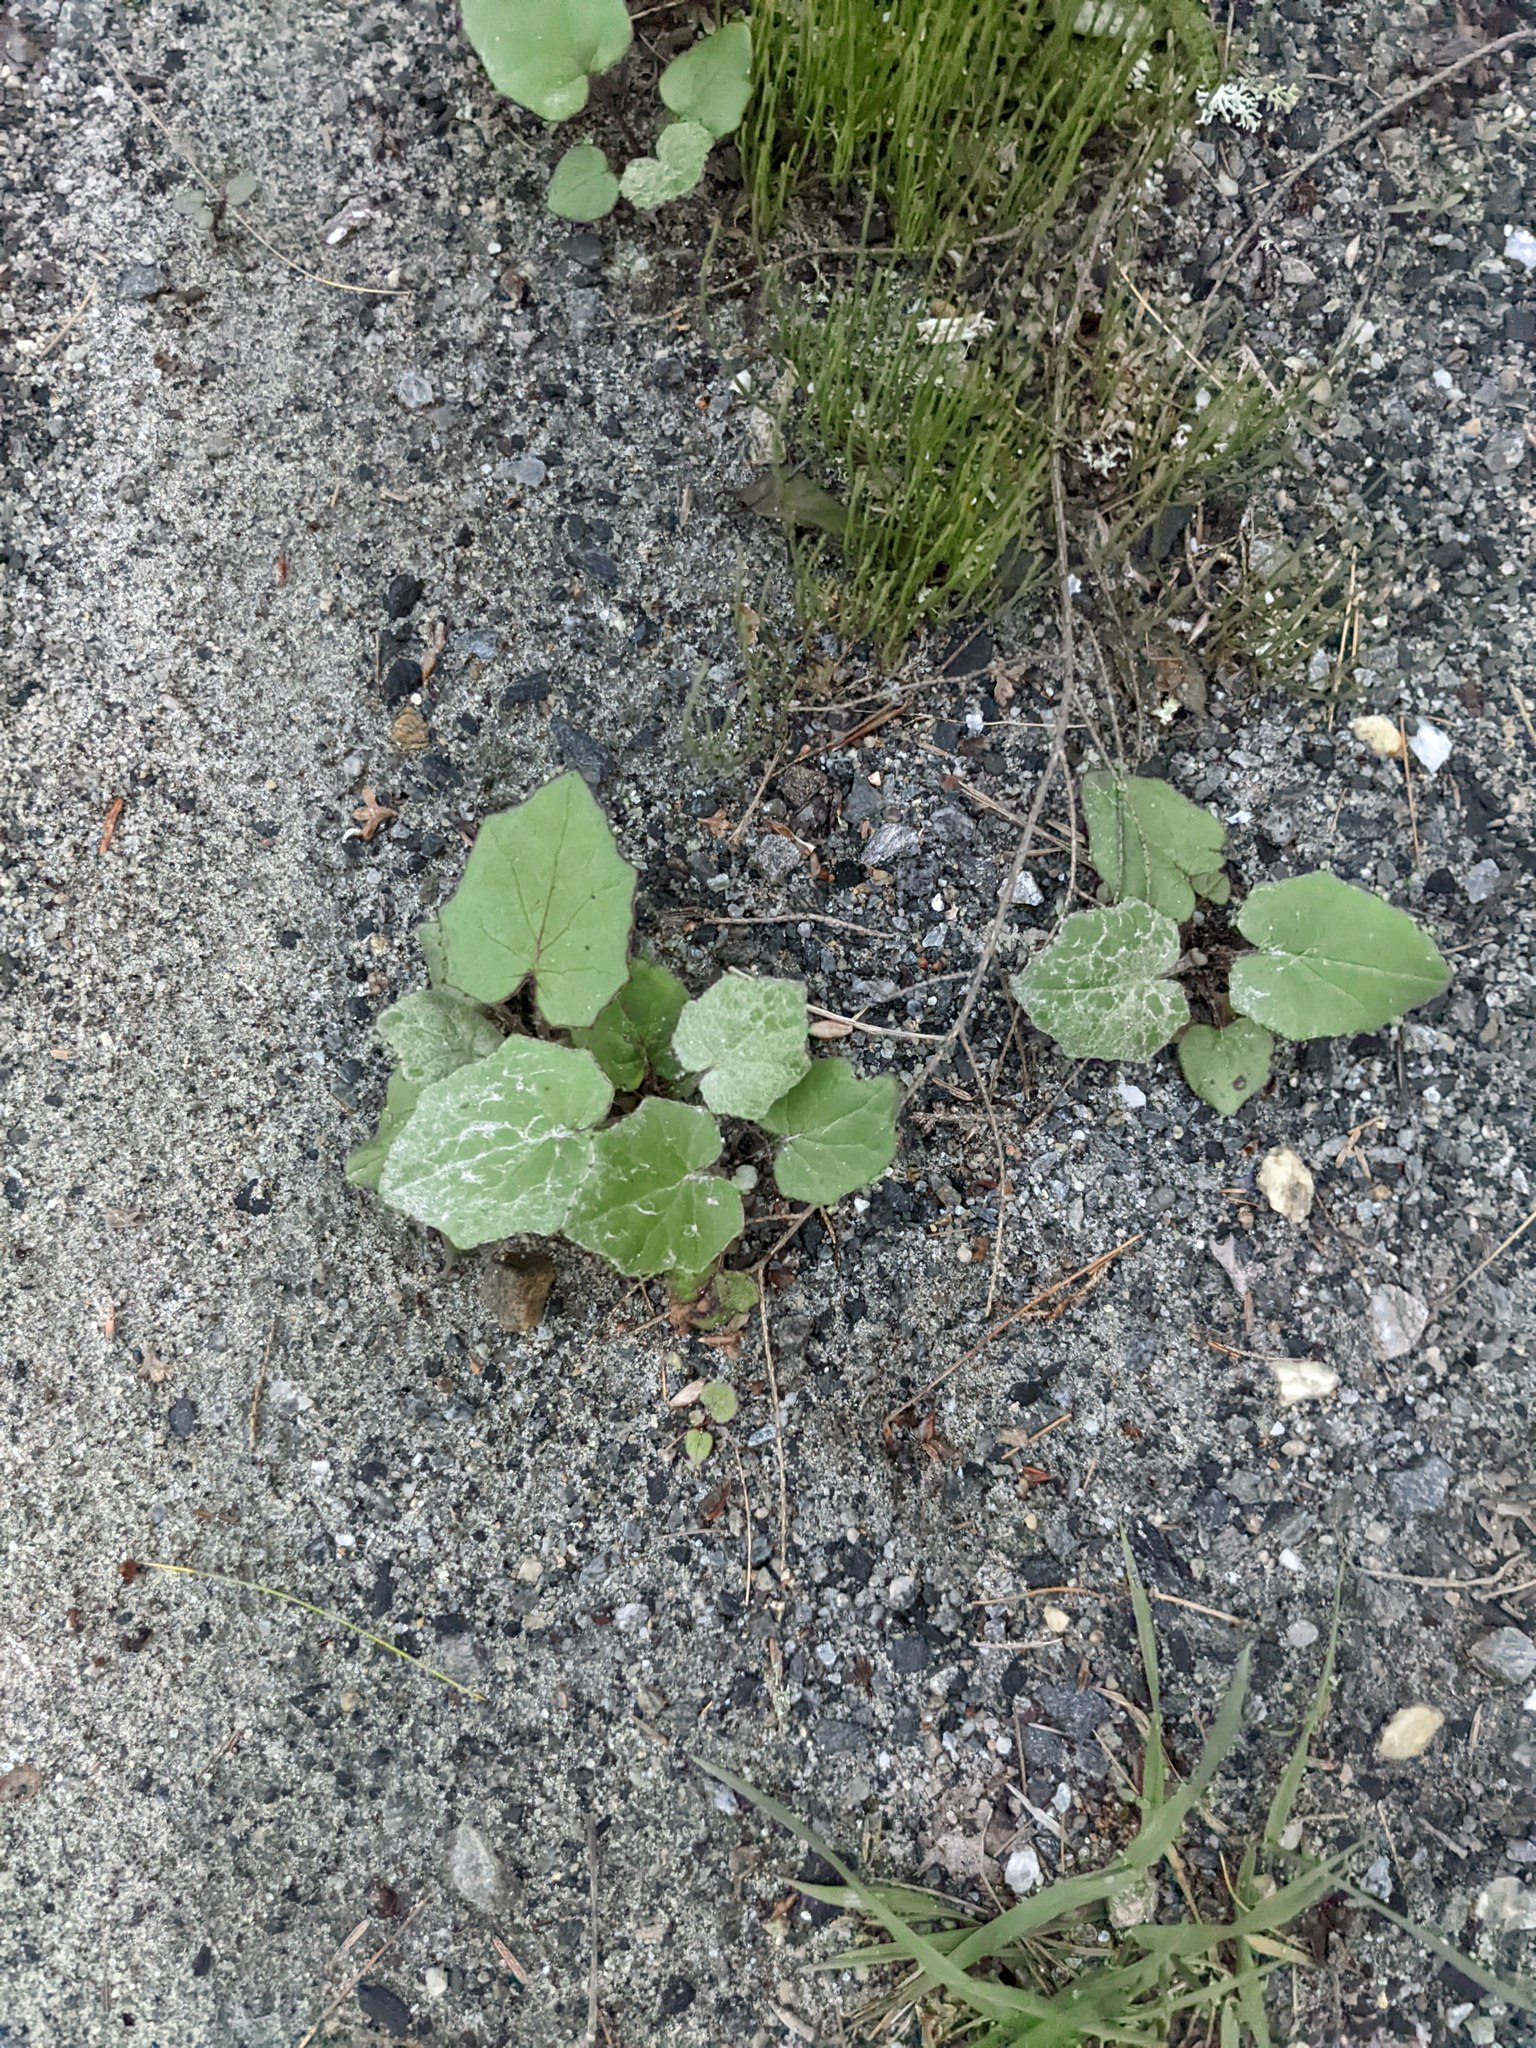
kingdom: Plantae
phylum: Tracheophyta
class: Magnoliopsida
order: Asterales
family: Asteraceae
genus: Tussilago
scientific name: Tussilago farfara
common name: Coltsfoot
